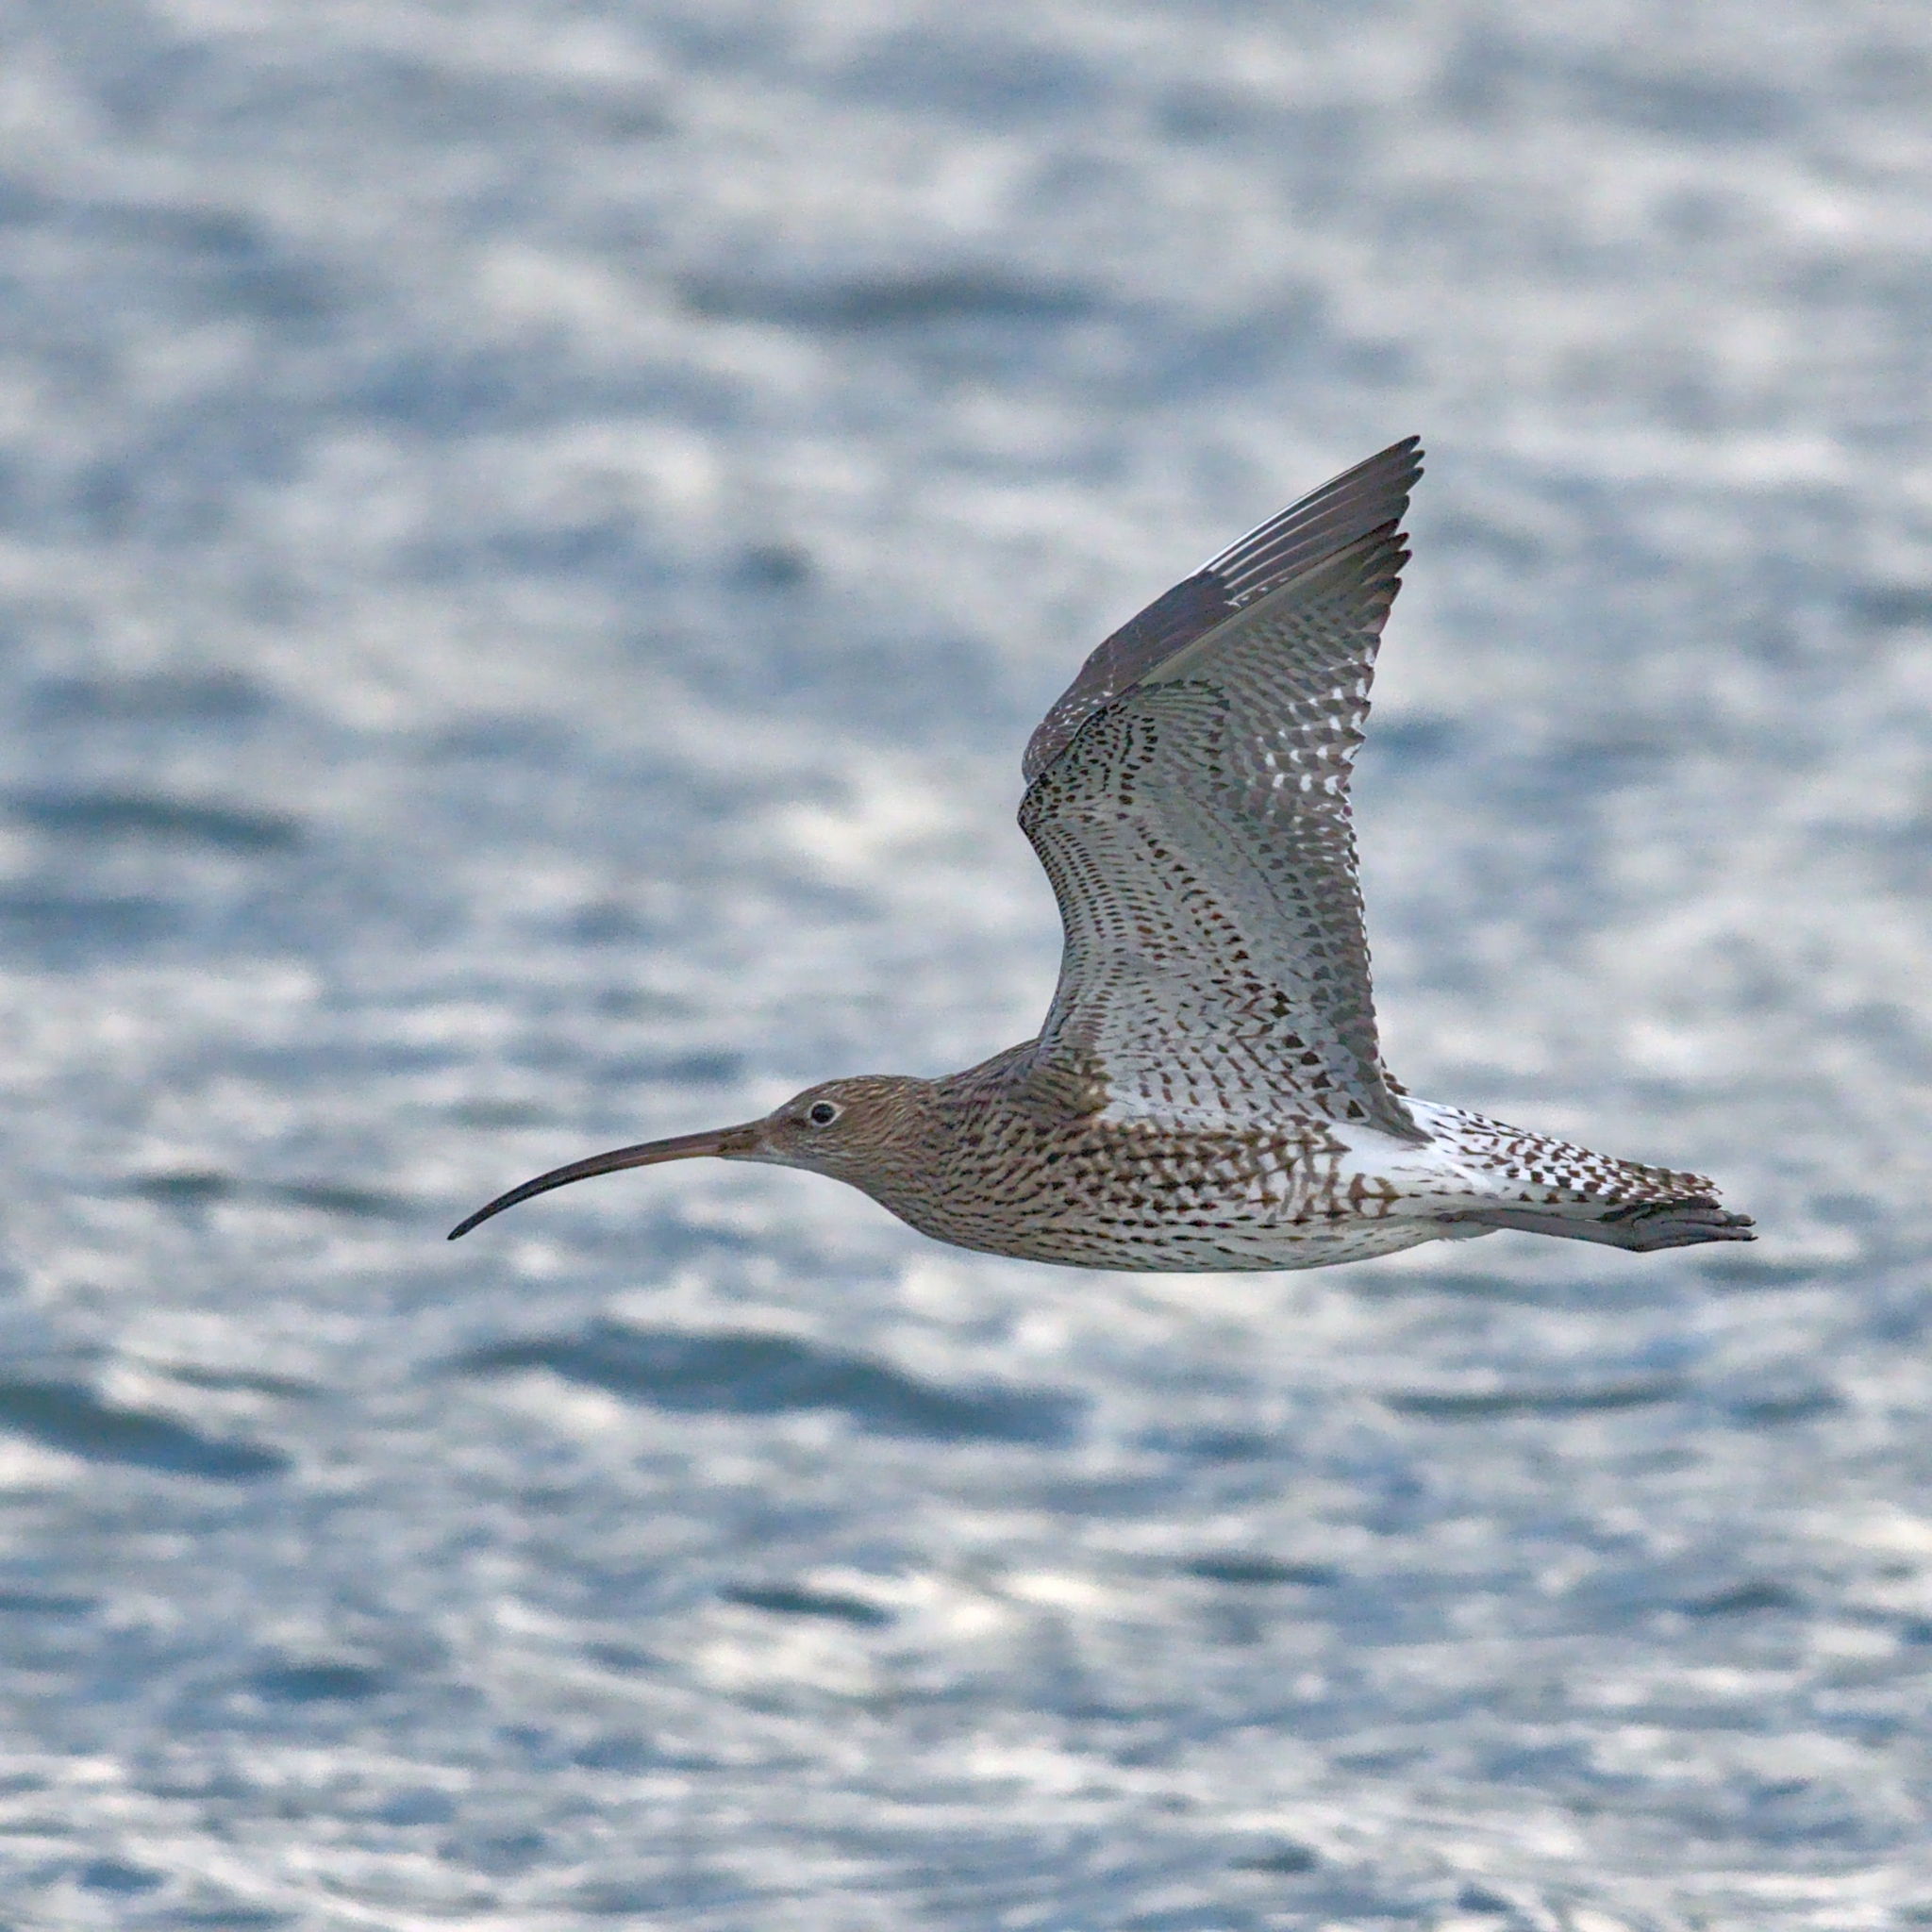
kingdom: Animalia
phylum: Chordata
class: Aves
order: Charadriiformes
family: Scolopacidae
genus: Numenius
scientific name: Numenius arquata
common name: Eurasian curlew
